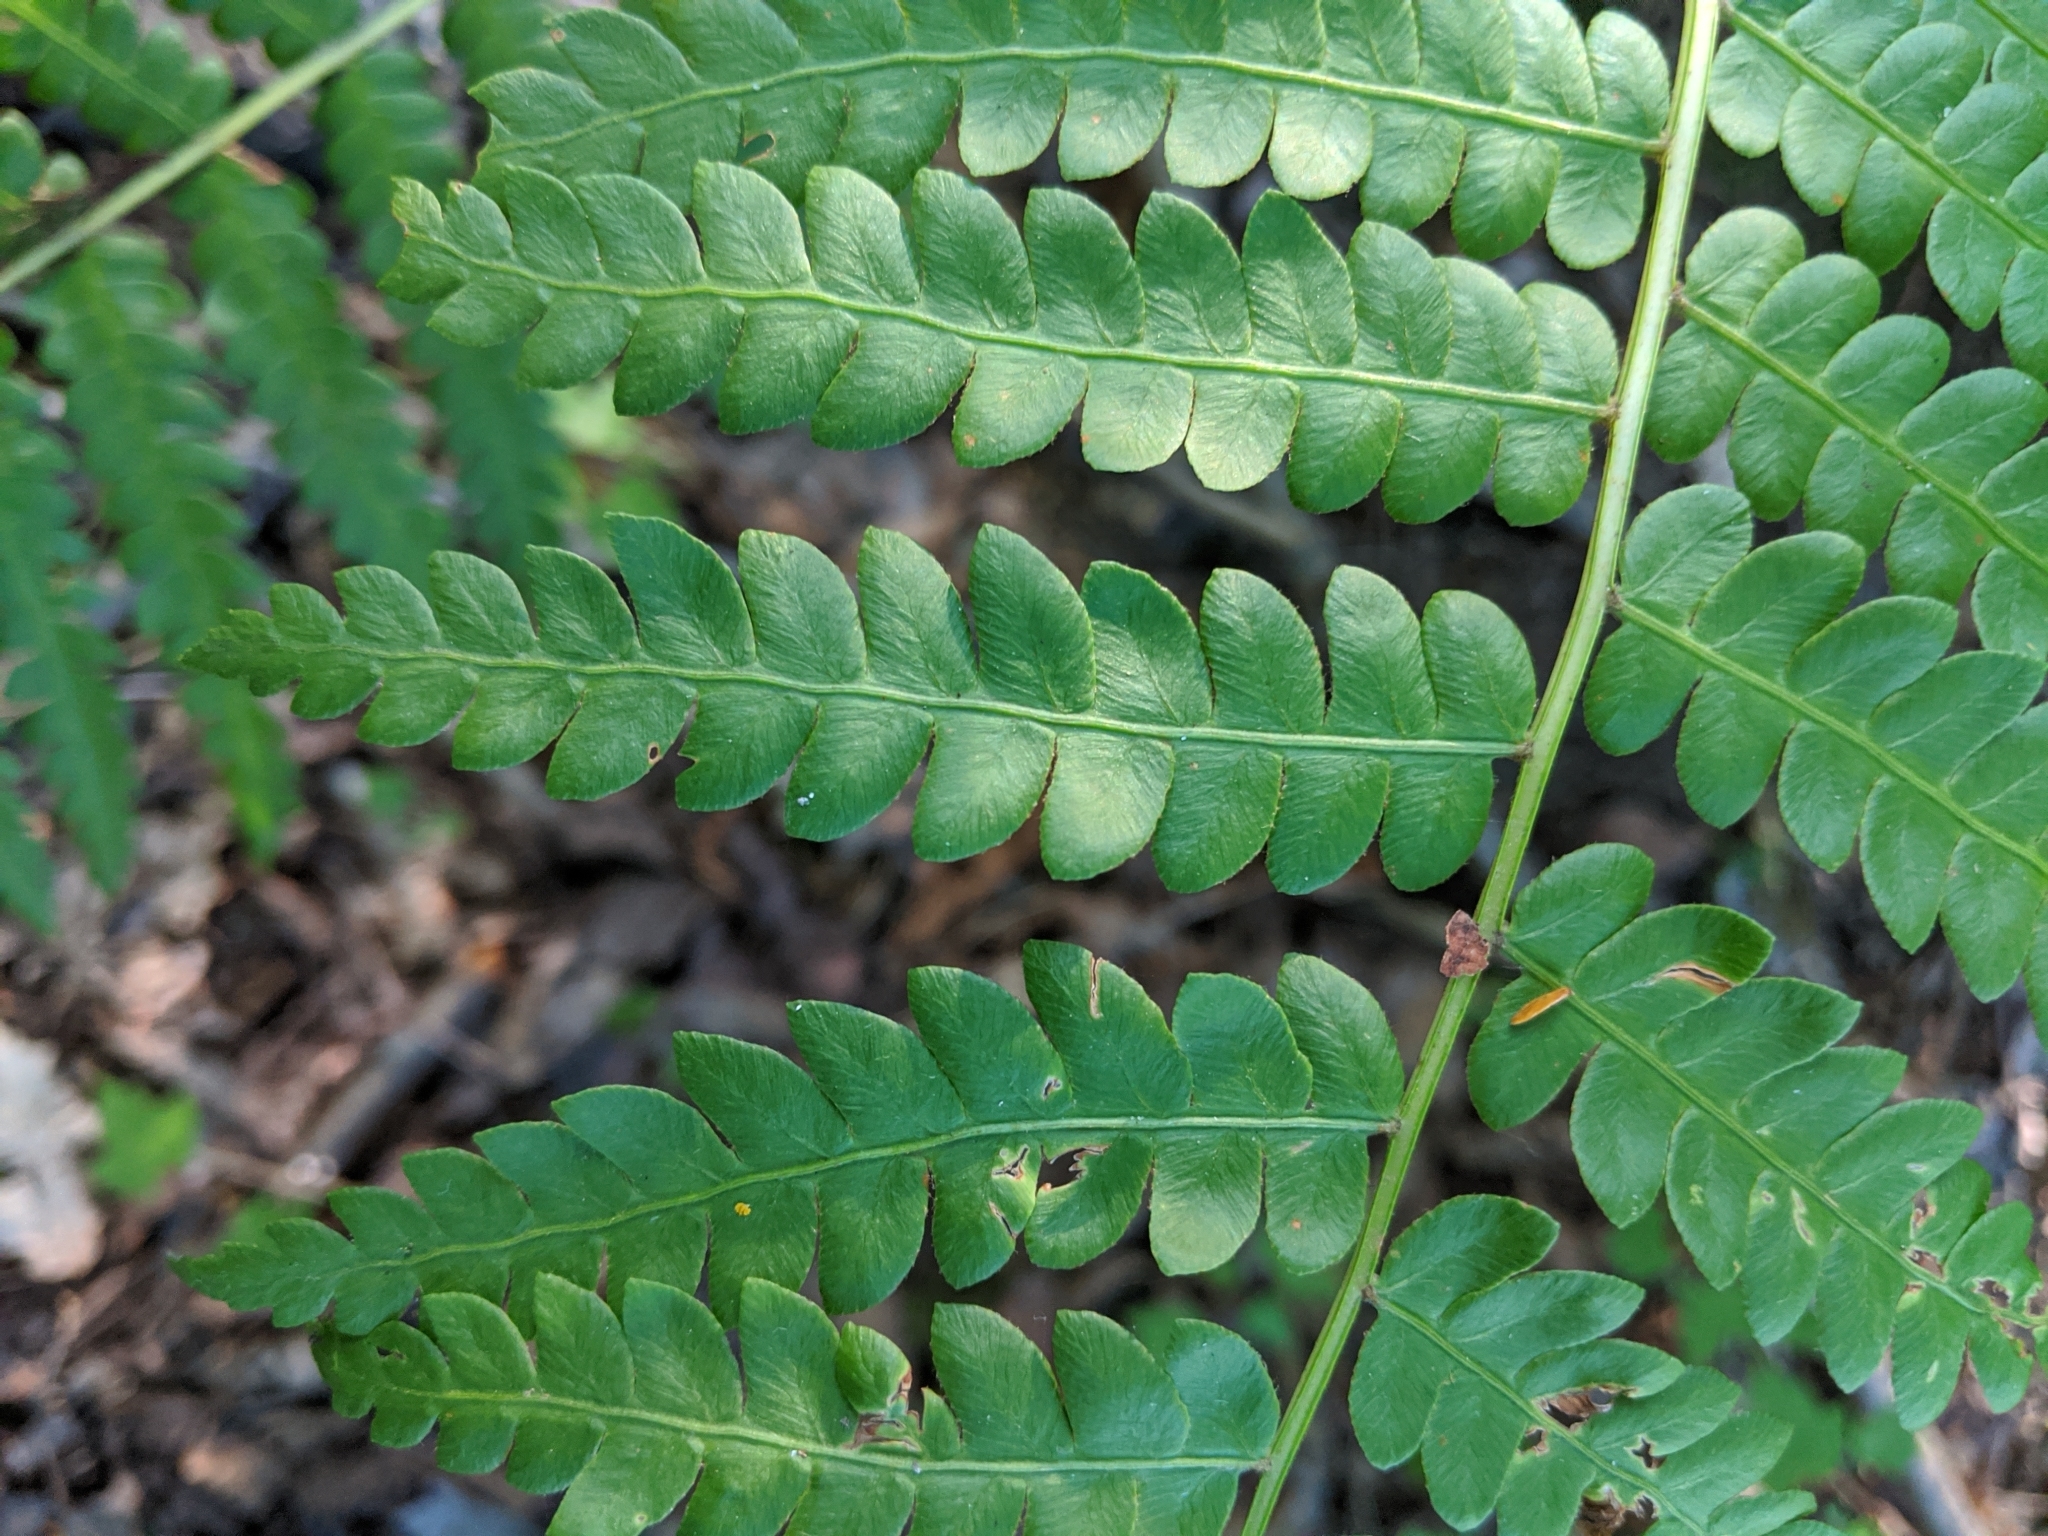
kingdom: Plantae
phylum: Tracheophyta
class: Polypodiopsida
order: Osmundales
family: Osmundaceae
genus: Osmundastrum
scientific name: Osmundastrum cinnamomeum
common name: Cinnamon fern
